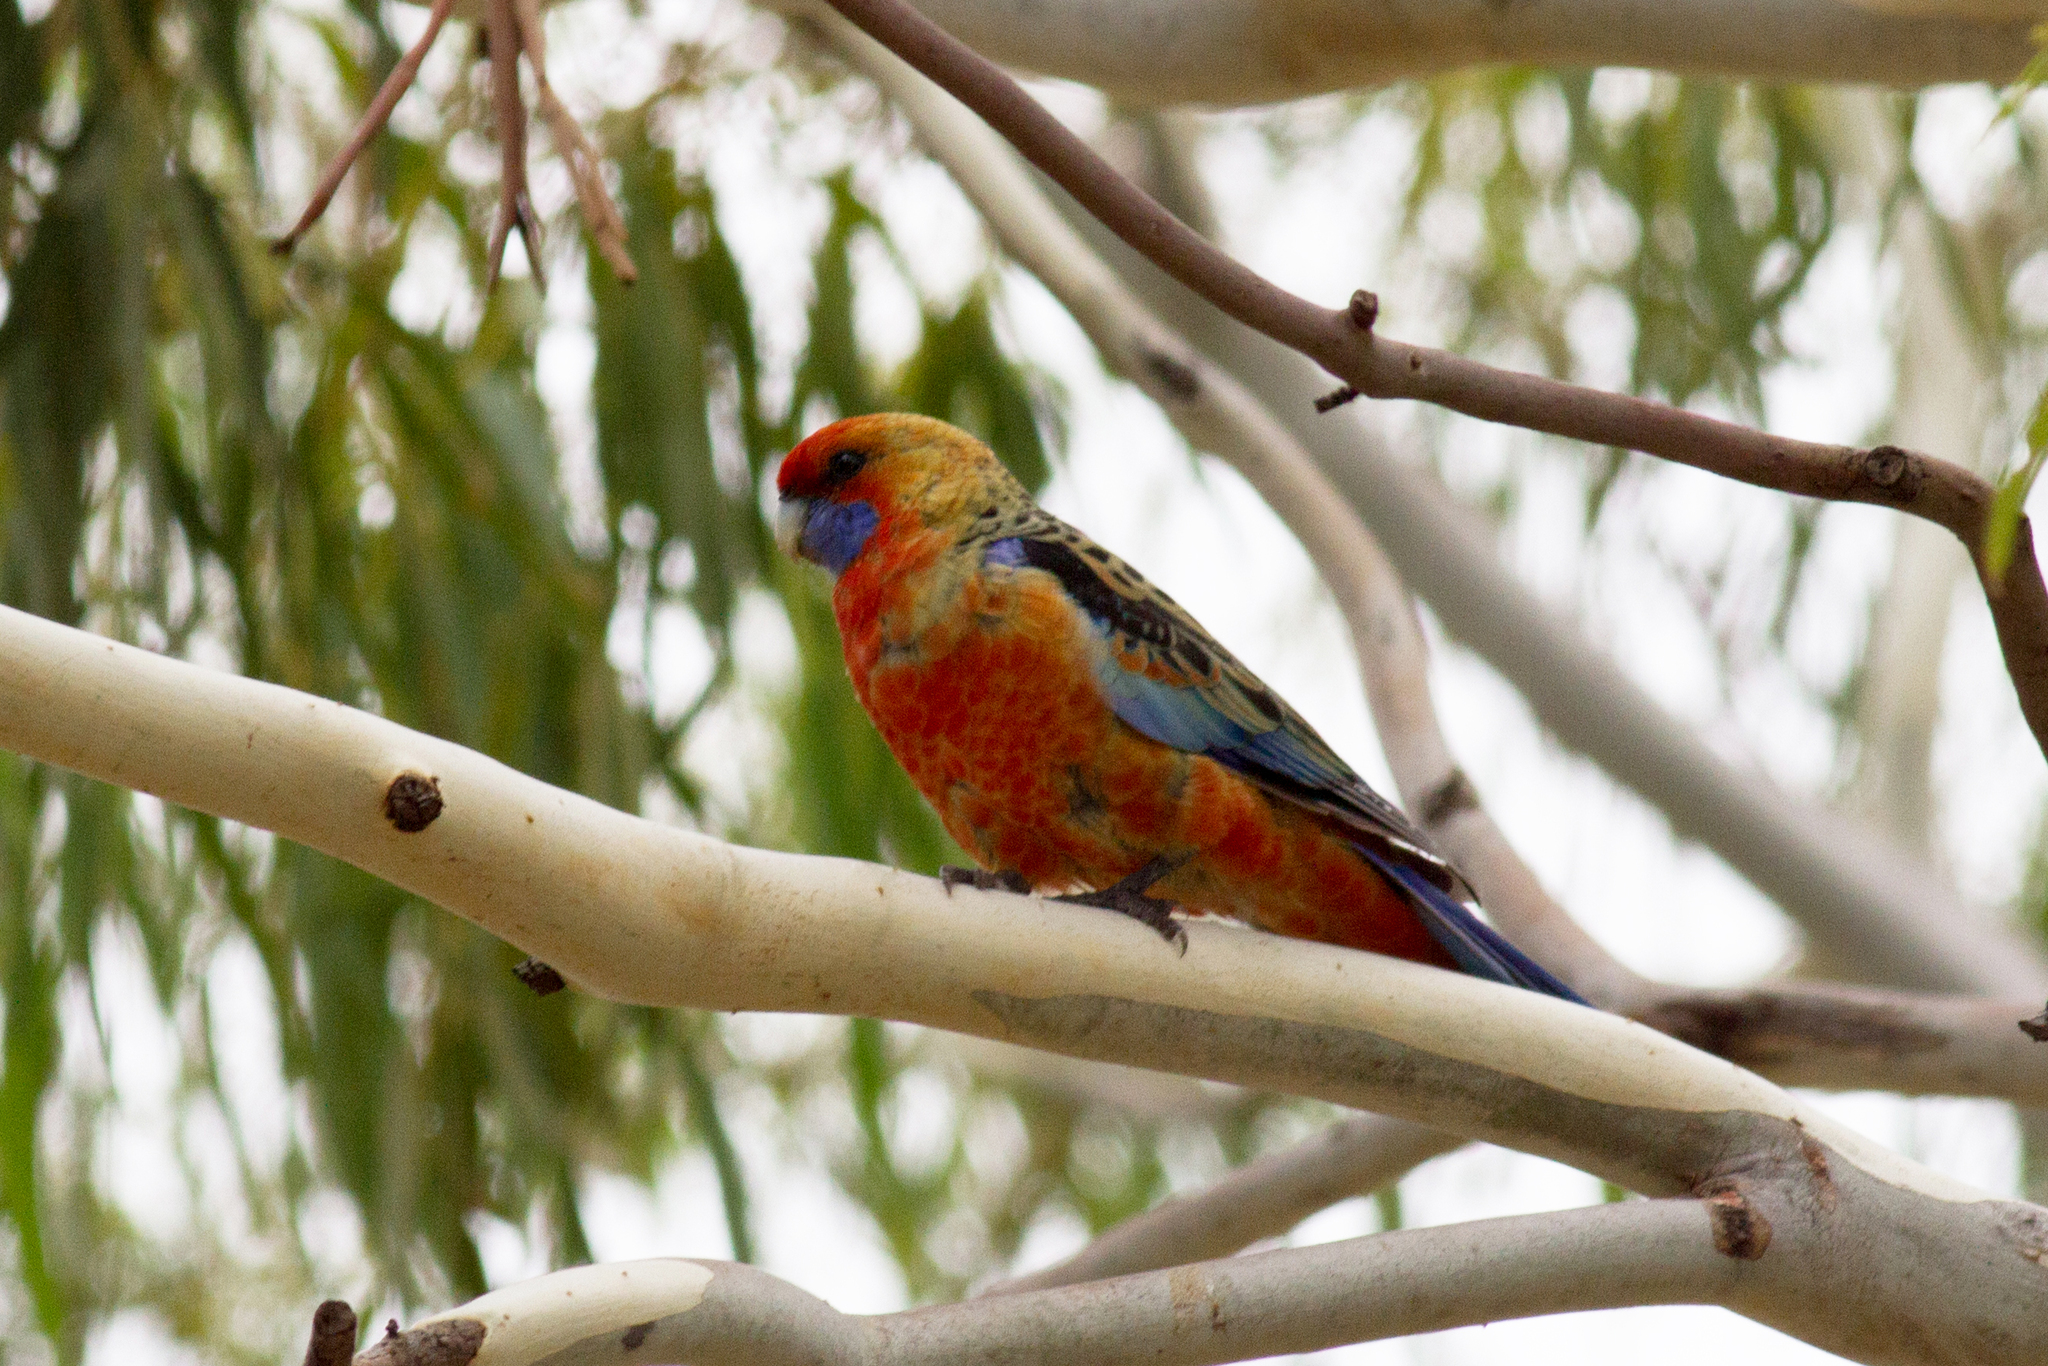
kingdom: Animalia
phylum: Chordata
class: Aves
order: Psittaciformes
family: Psittacidae
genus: Platycercus
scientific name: Platycercus elegans
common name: Crimson rosella
